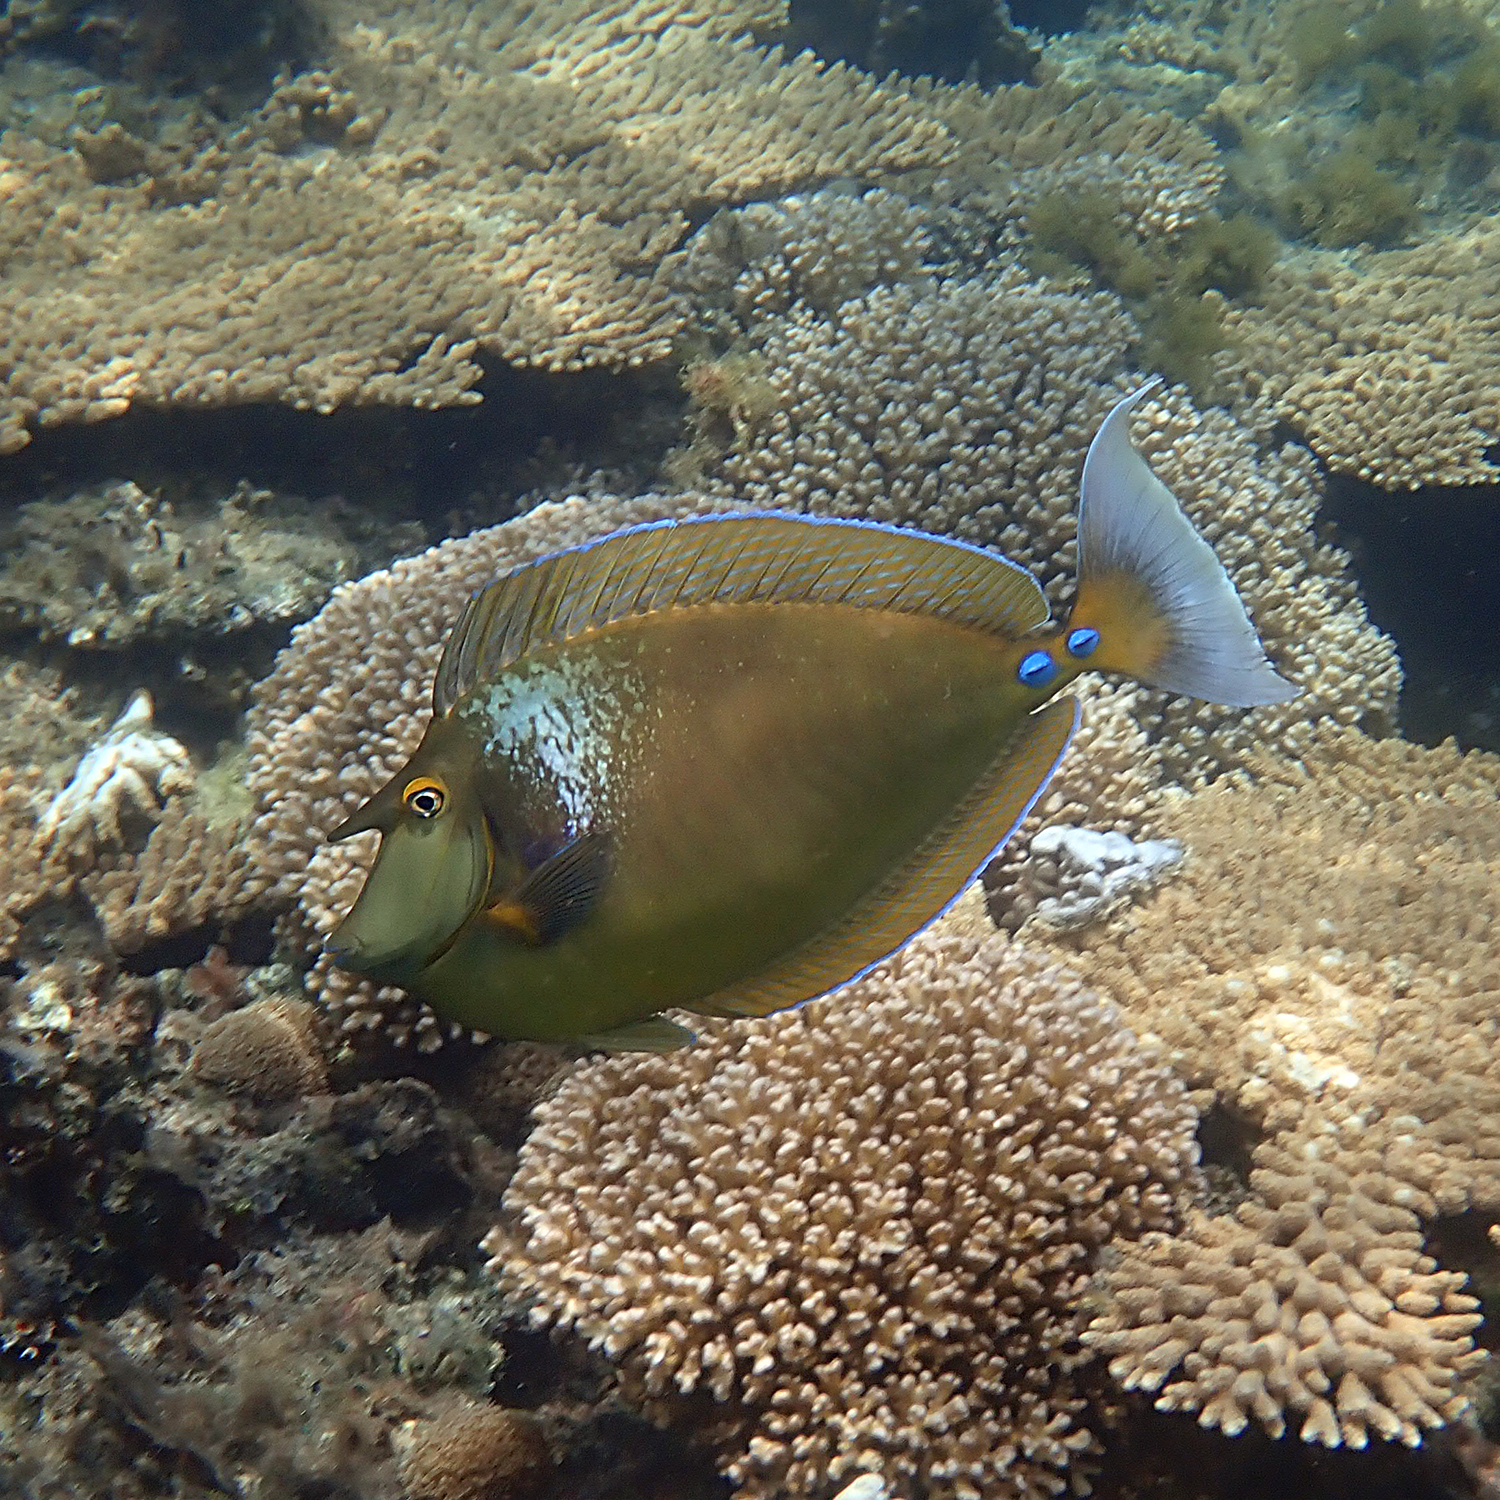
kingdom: Animalia
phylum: Chordata
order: Perciformes
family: Acanthuridae
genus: Naso
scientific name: Naso unicornis
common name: Bluespine unicornfish
